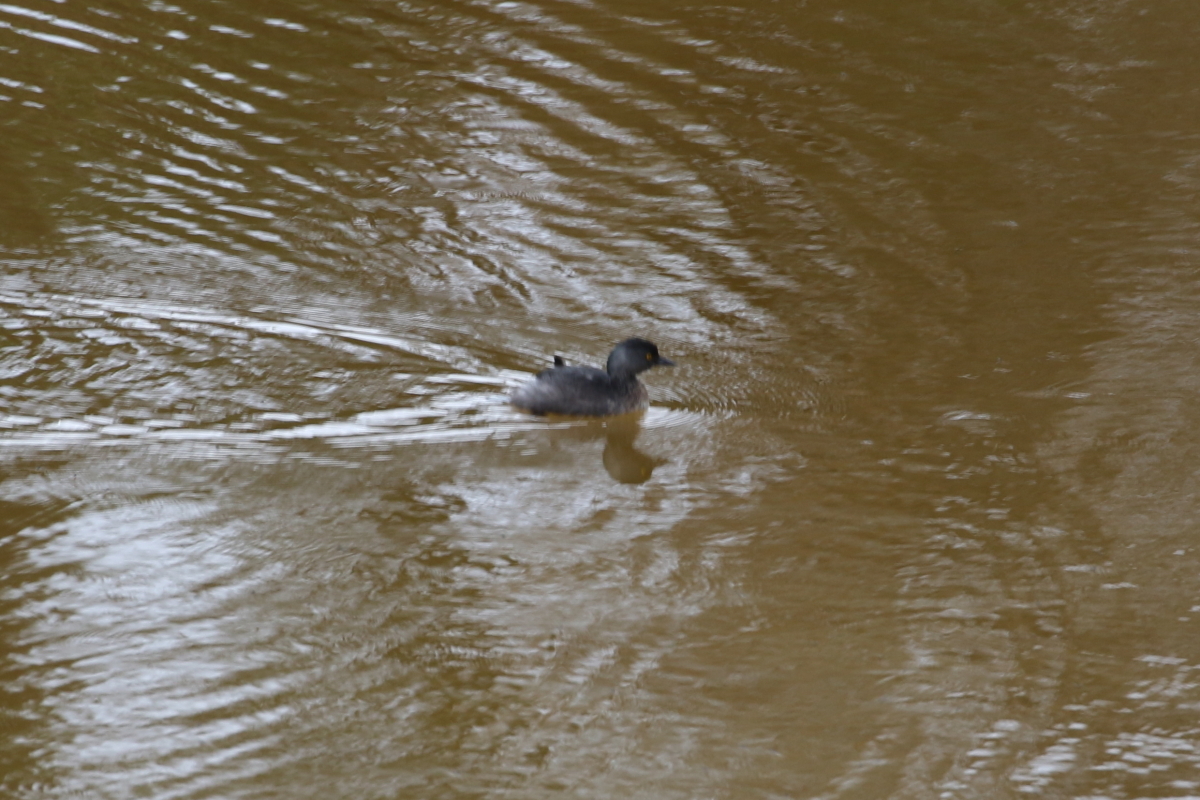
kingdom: Animalia
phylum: Chordata
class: Aves
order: Podicipediformes
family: Podicipedidae
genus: Tachybaptus
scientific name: Tachybaptus dominicus
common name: Least grebe
